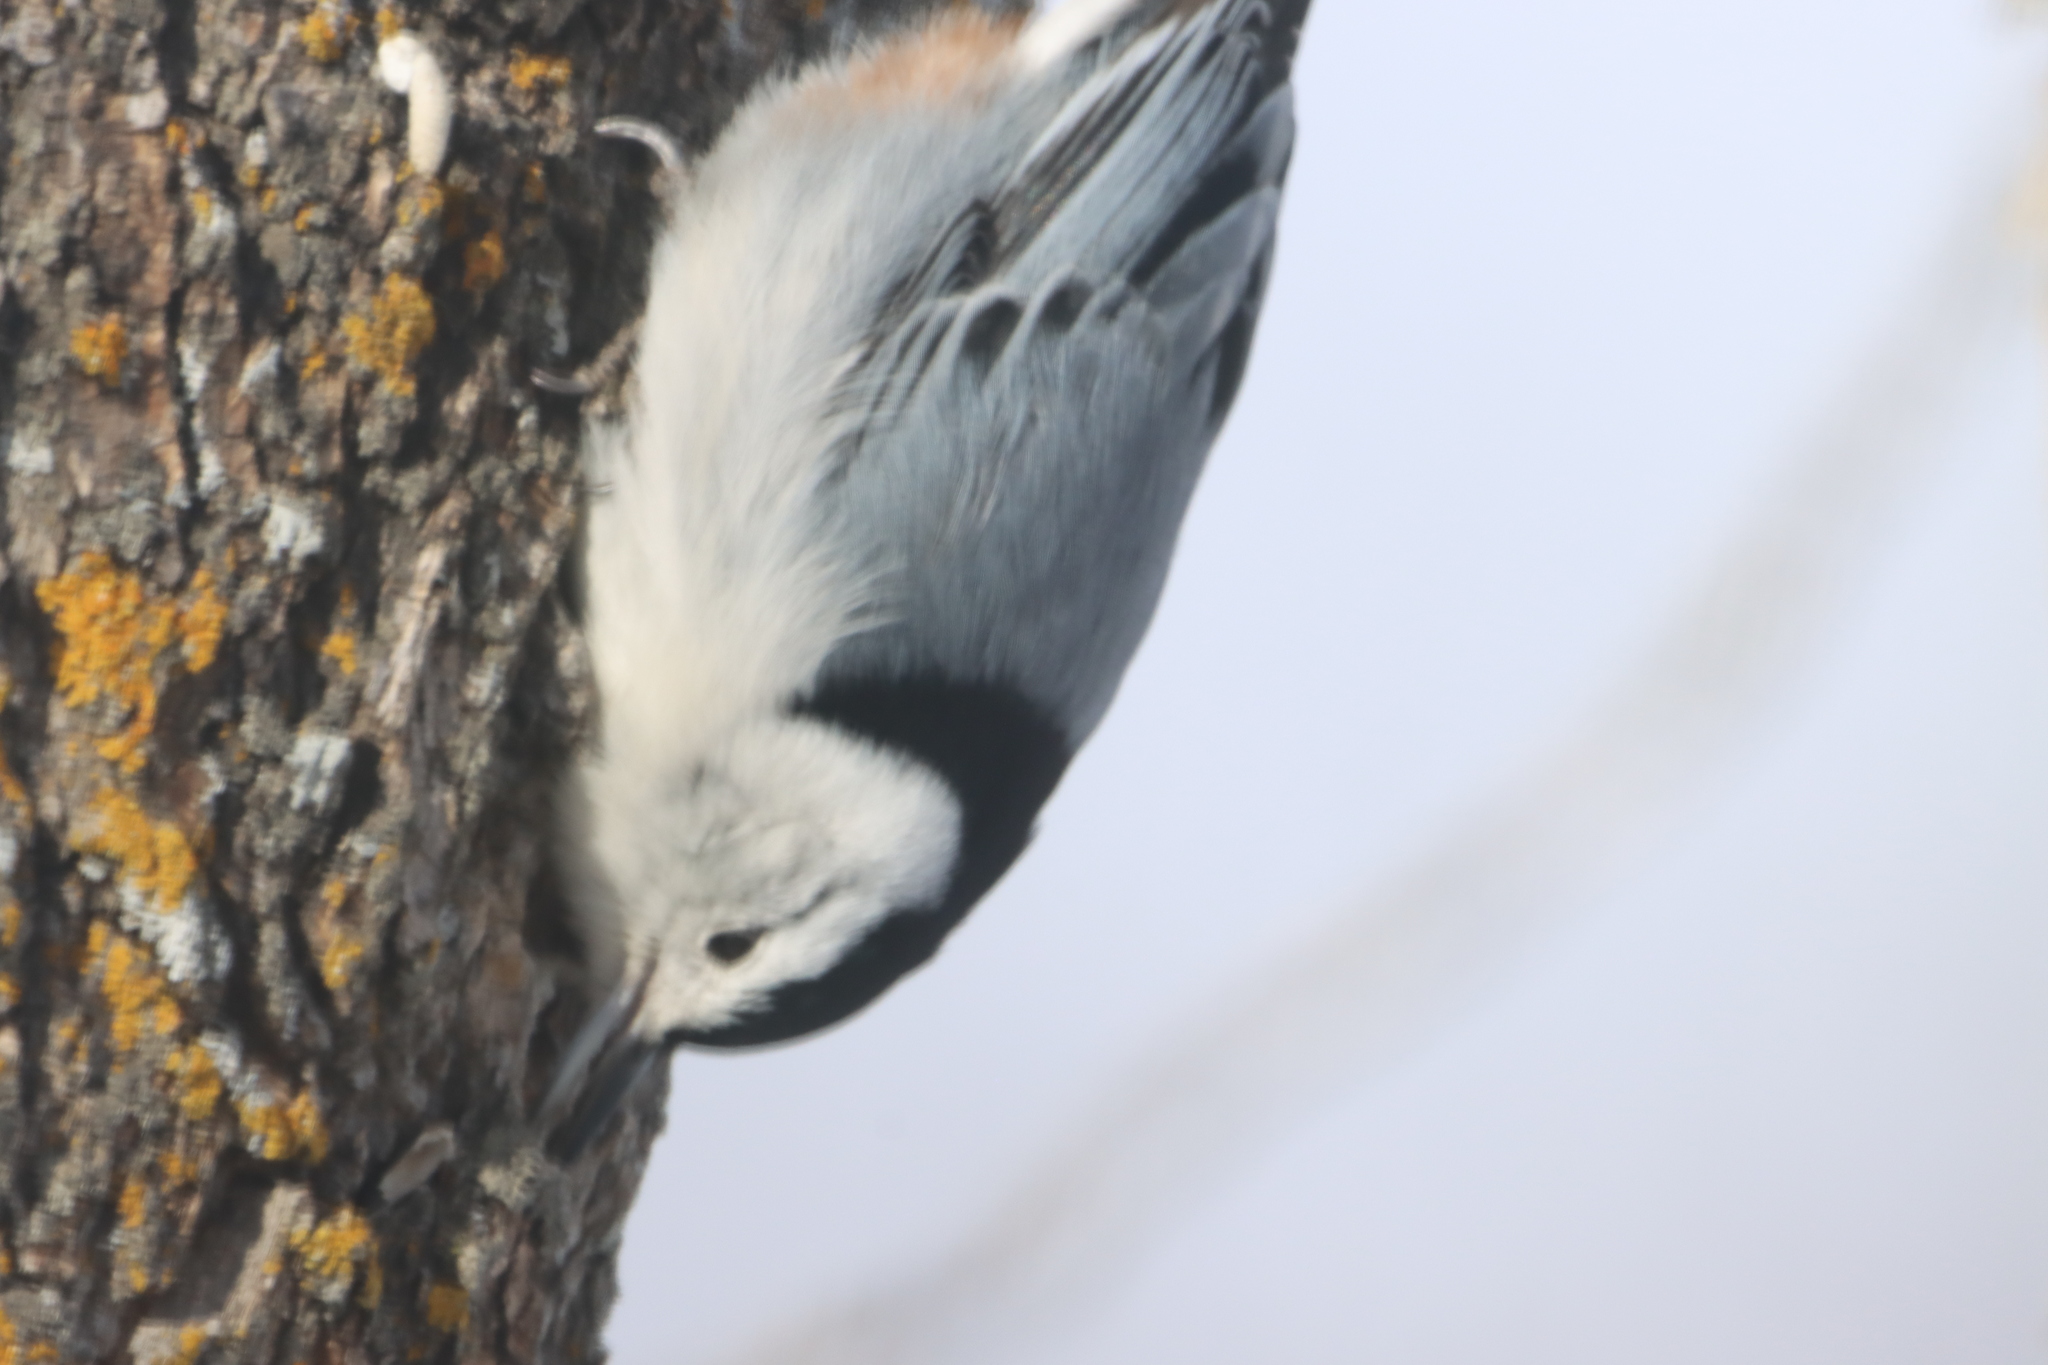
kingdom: Animalia
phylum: Chordata
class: Aves
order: Passeriformes
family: Sittidae
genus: Sitta
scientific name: Sitta carolinensis
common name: White-breasted nuthatch
